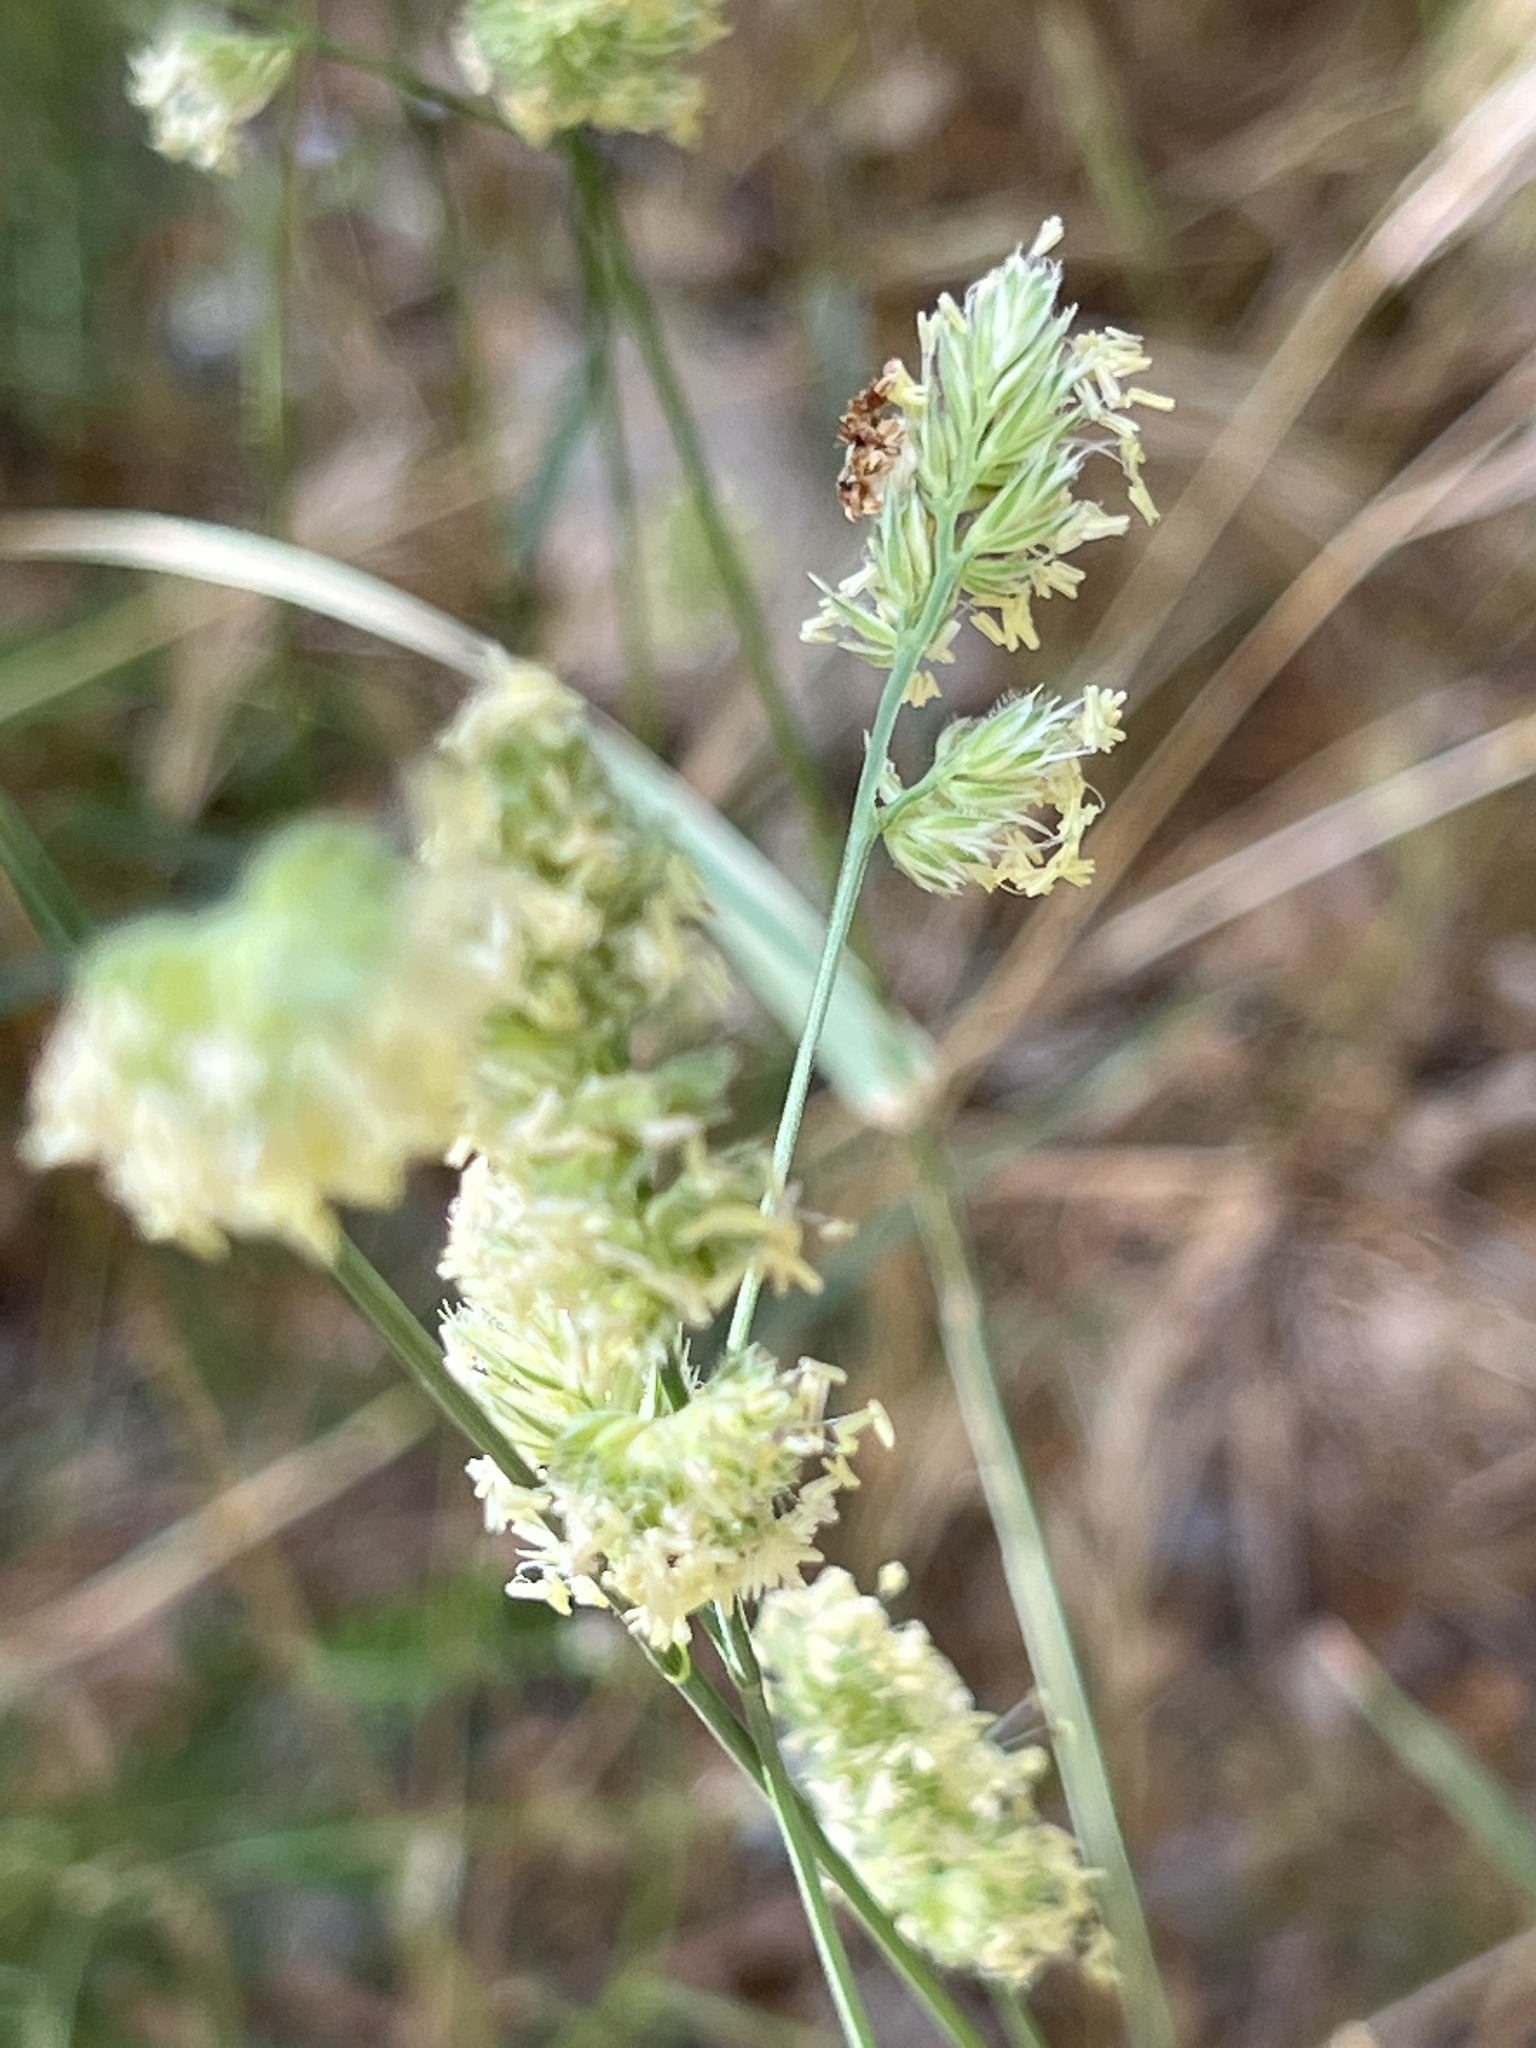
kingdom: Plantae
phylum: Tracheophyta
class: Liliopsida
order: Poales
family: Poaceae
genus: Dactylis
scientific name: Dactylis glomerata
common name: Orchardgrass
